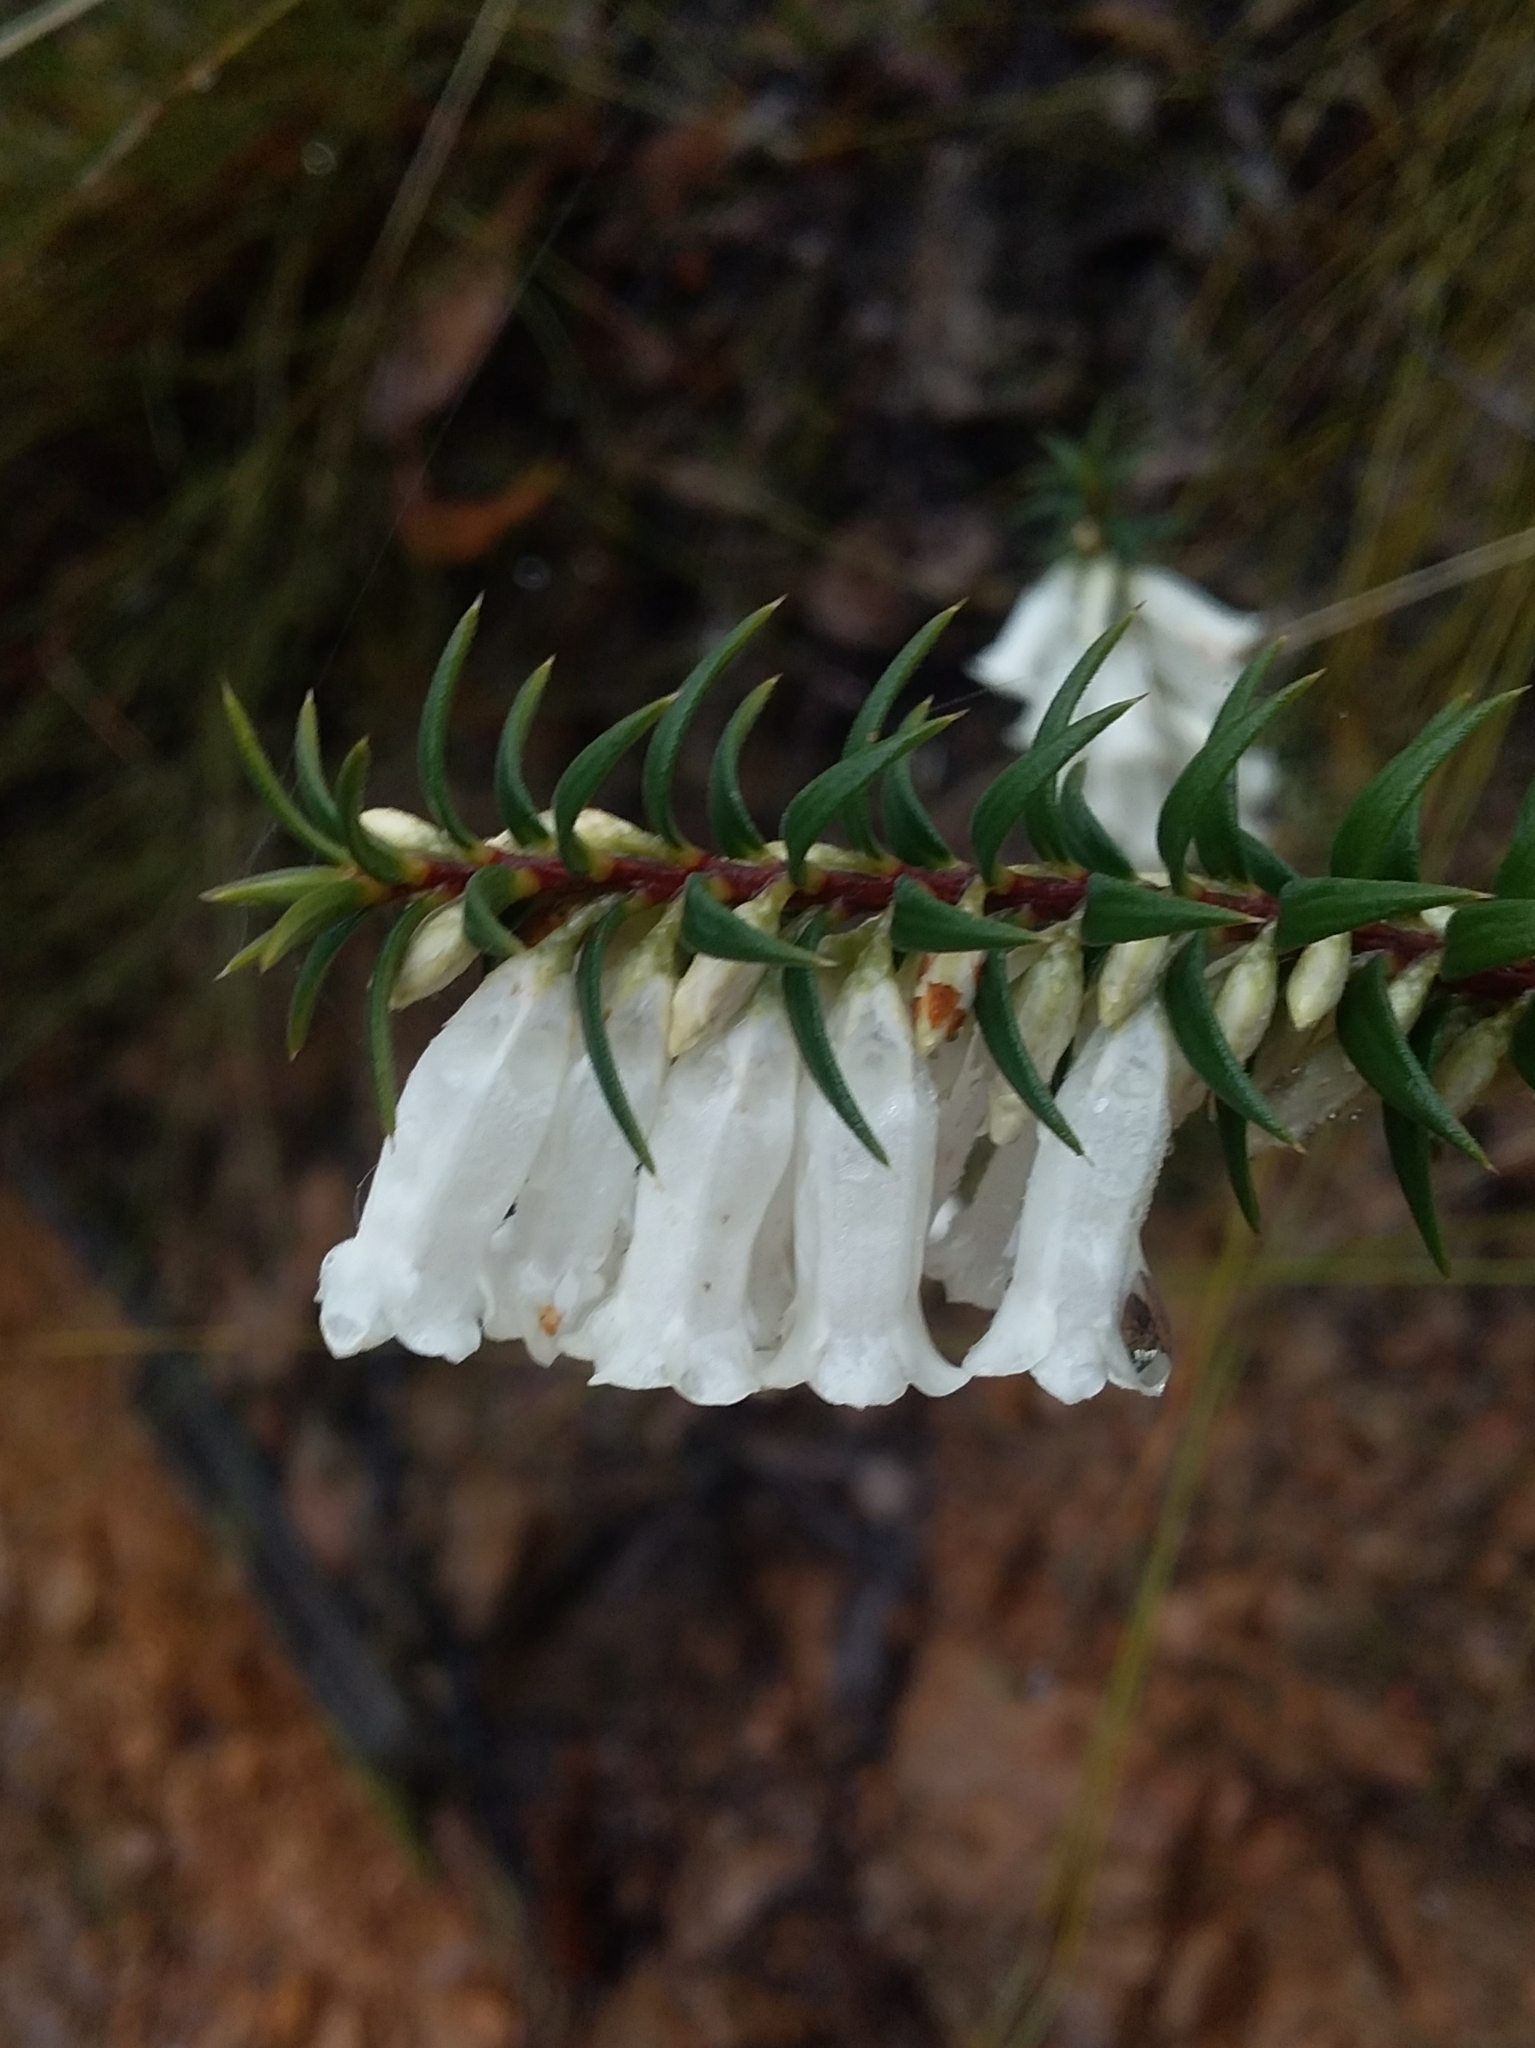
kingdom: Plantae
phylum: Tracheophyta
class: Magnoliopsida
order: Ericales
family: Ericaceae
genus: Epacris
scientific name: Epacris impressa
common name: Common-heath
